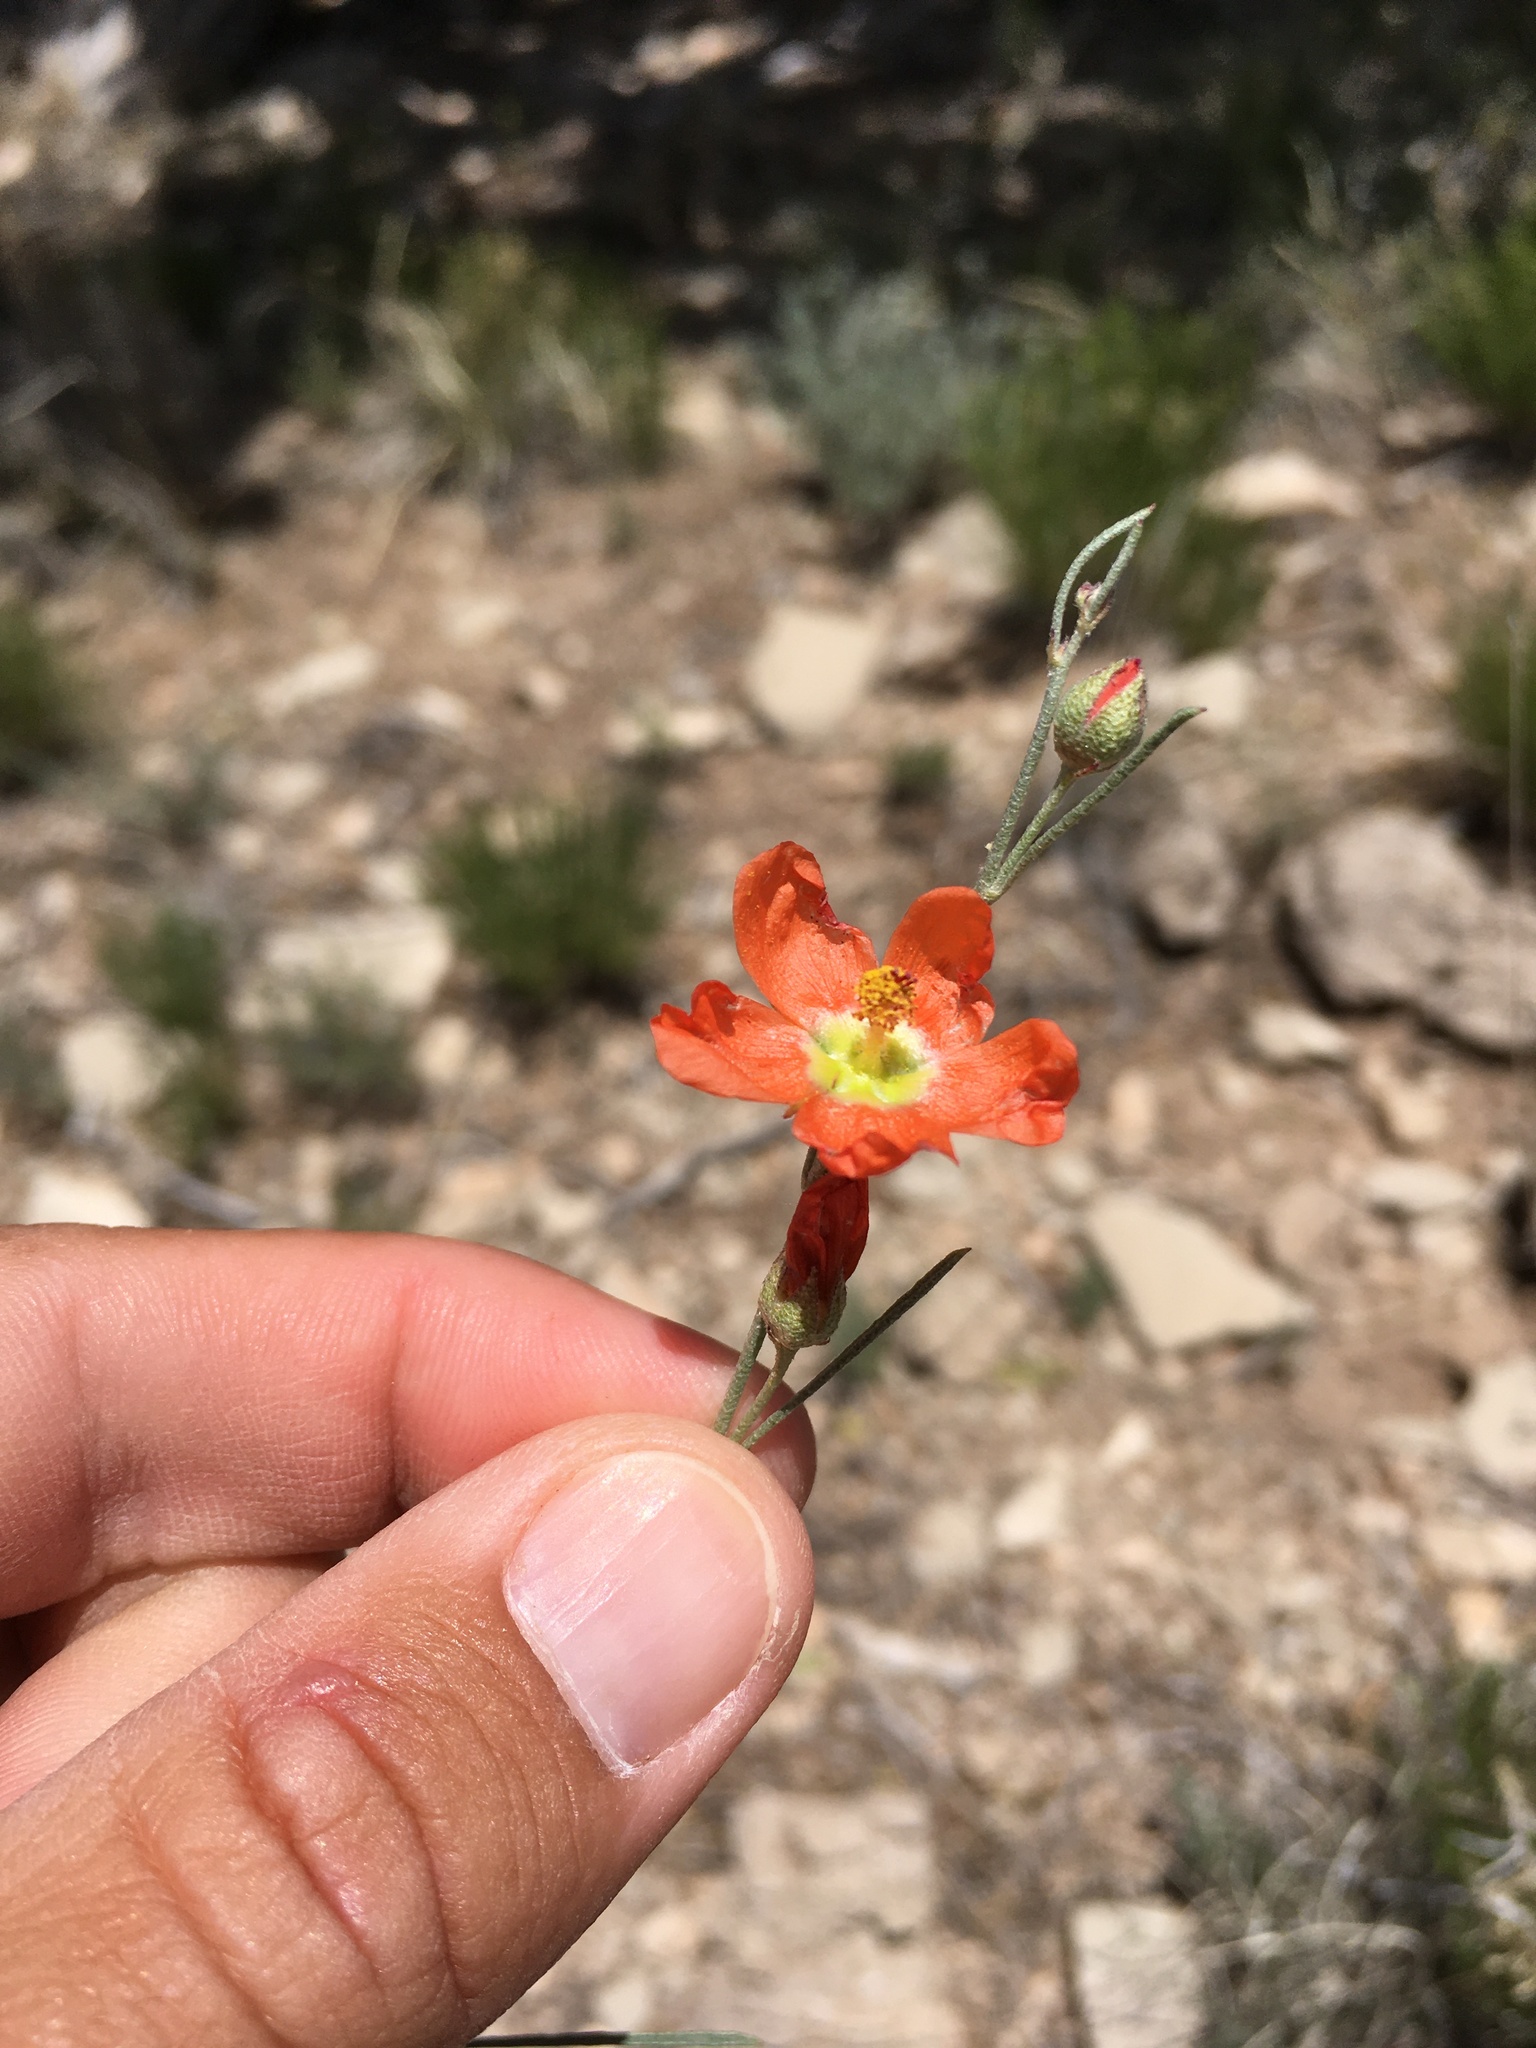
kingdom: Plantae
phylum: Tracheophyta
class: Magnoliopsida
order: Malvales
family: Malvaceae
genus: Sphaeralcea
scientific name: Sphaeralcea leptophylla
